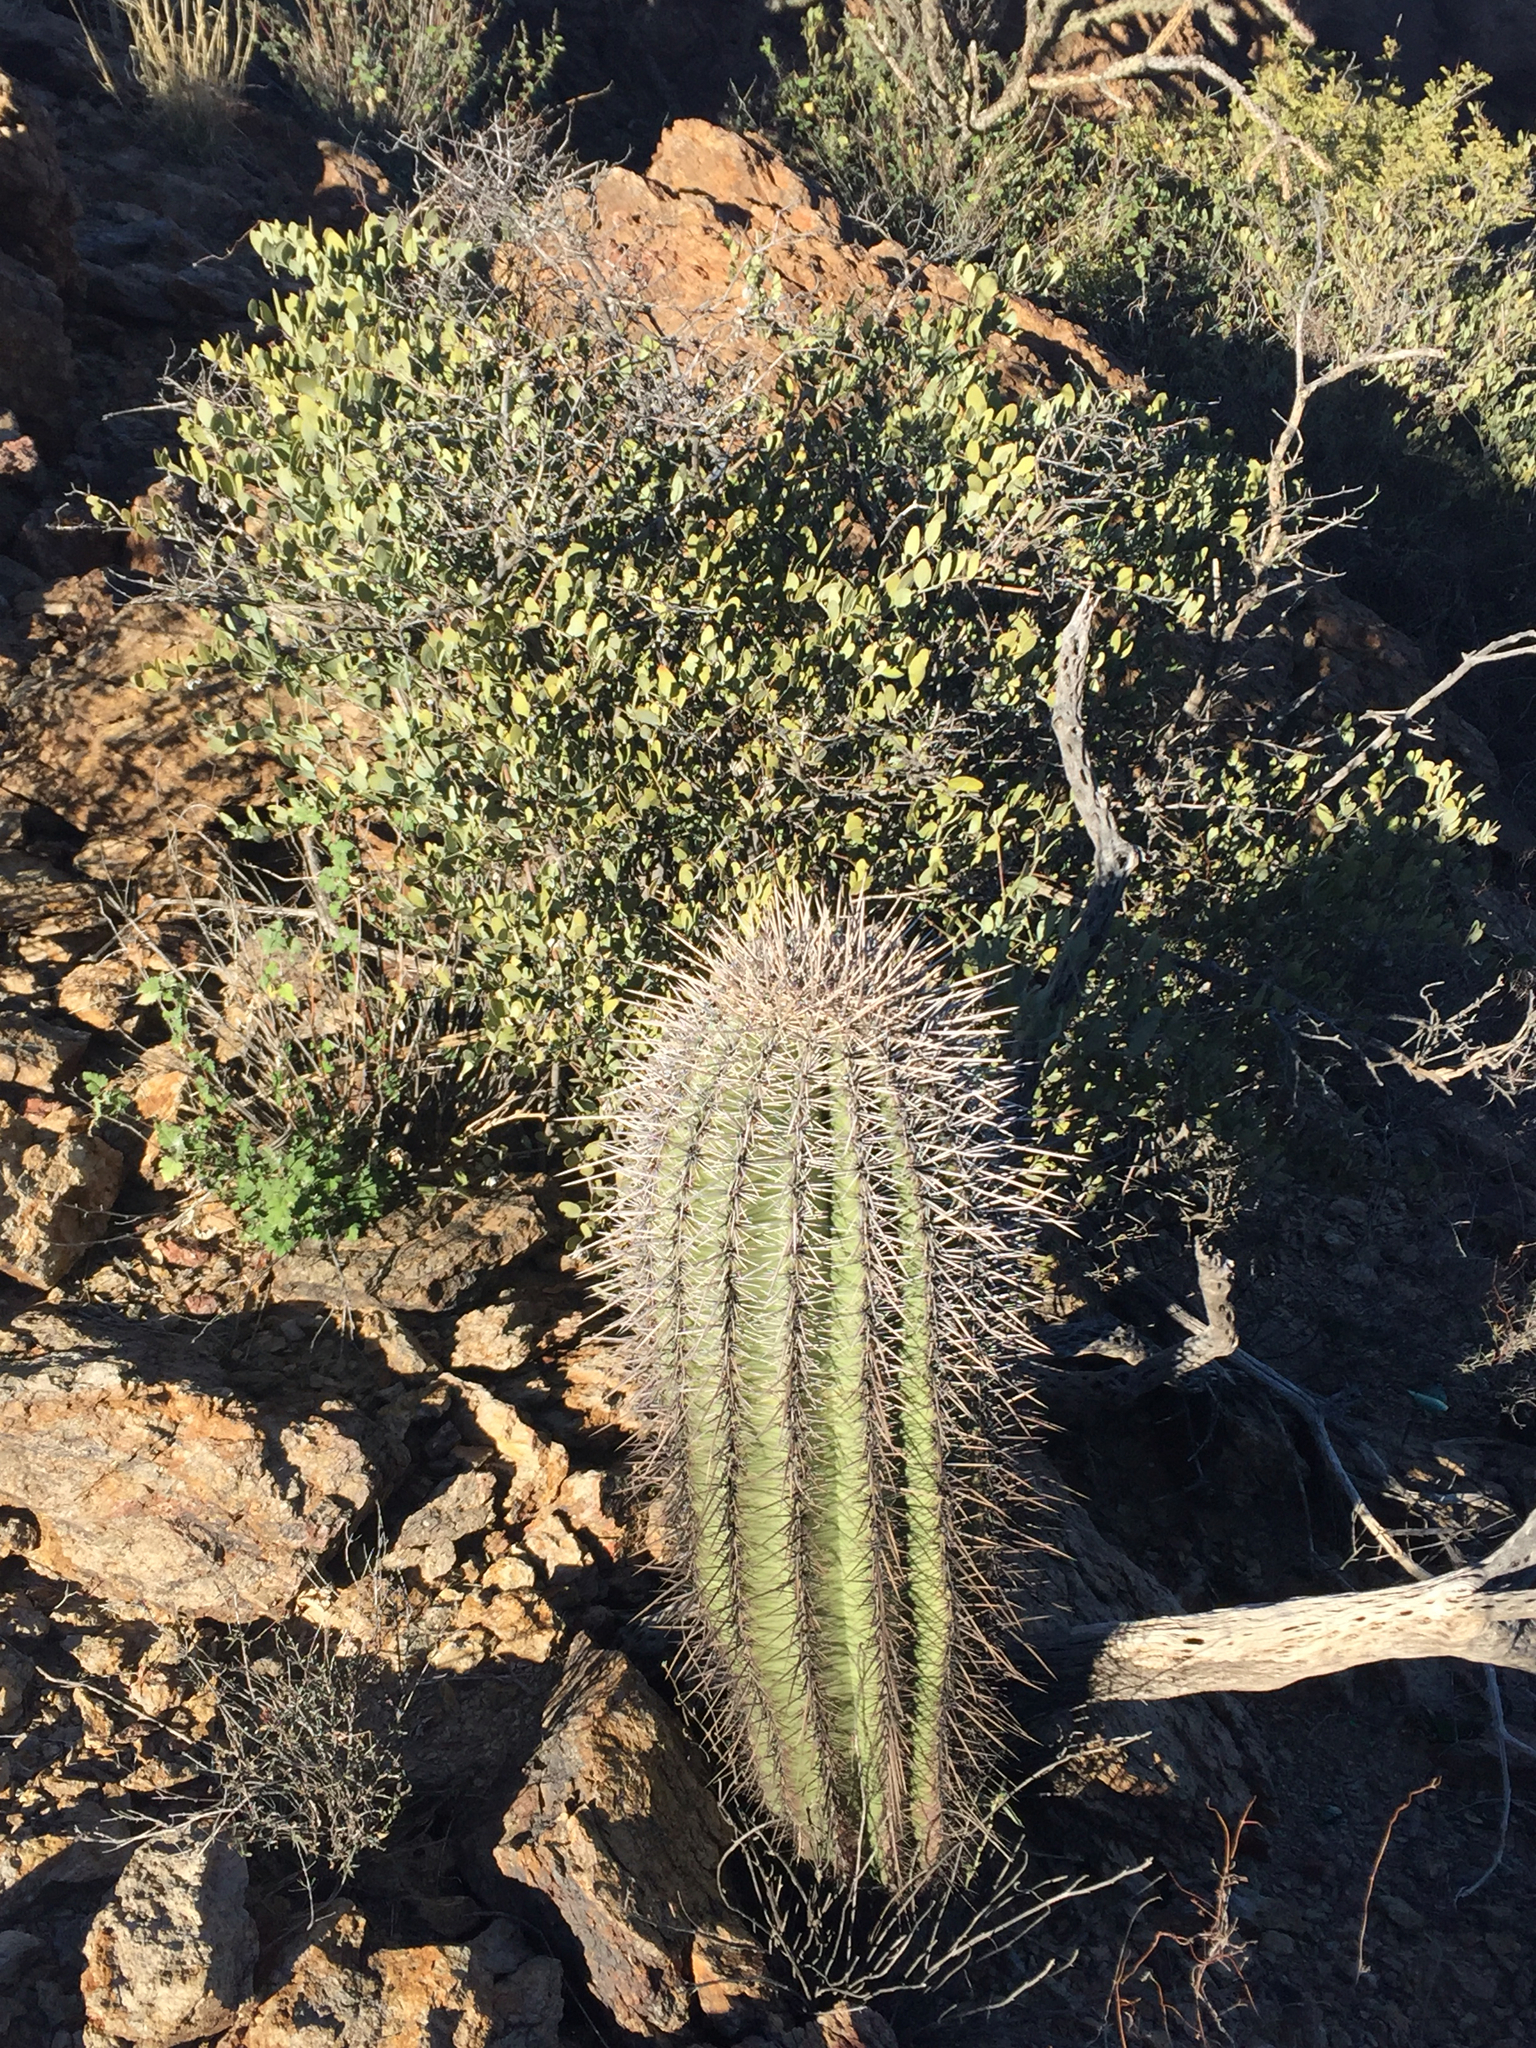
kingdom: Plantae
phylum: Tracheophyta
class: Magnoliopsida
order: Caryophyllales
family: Cactaceae
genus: Carnegiea
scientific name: Carnegiea gigantea
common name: Saguaro
